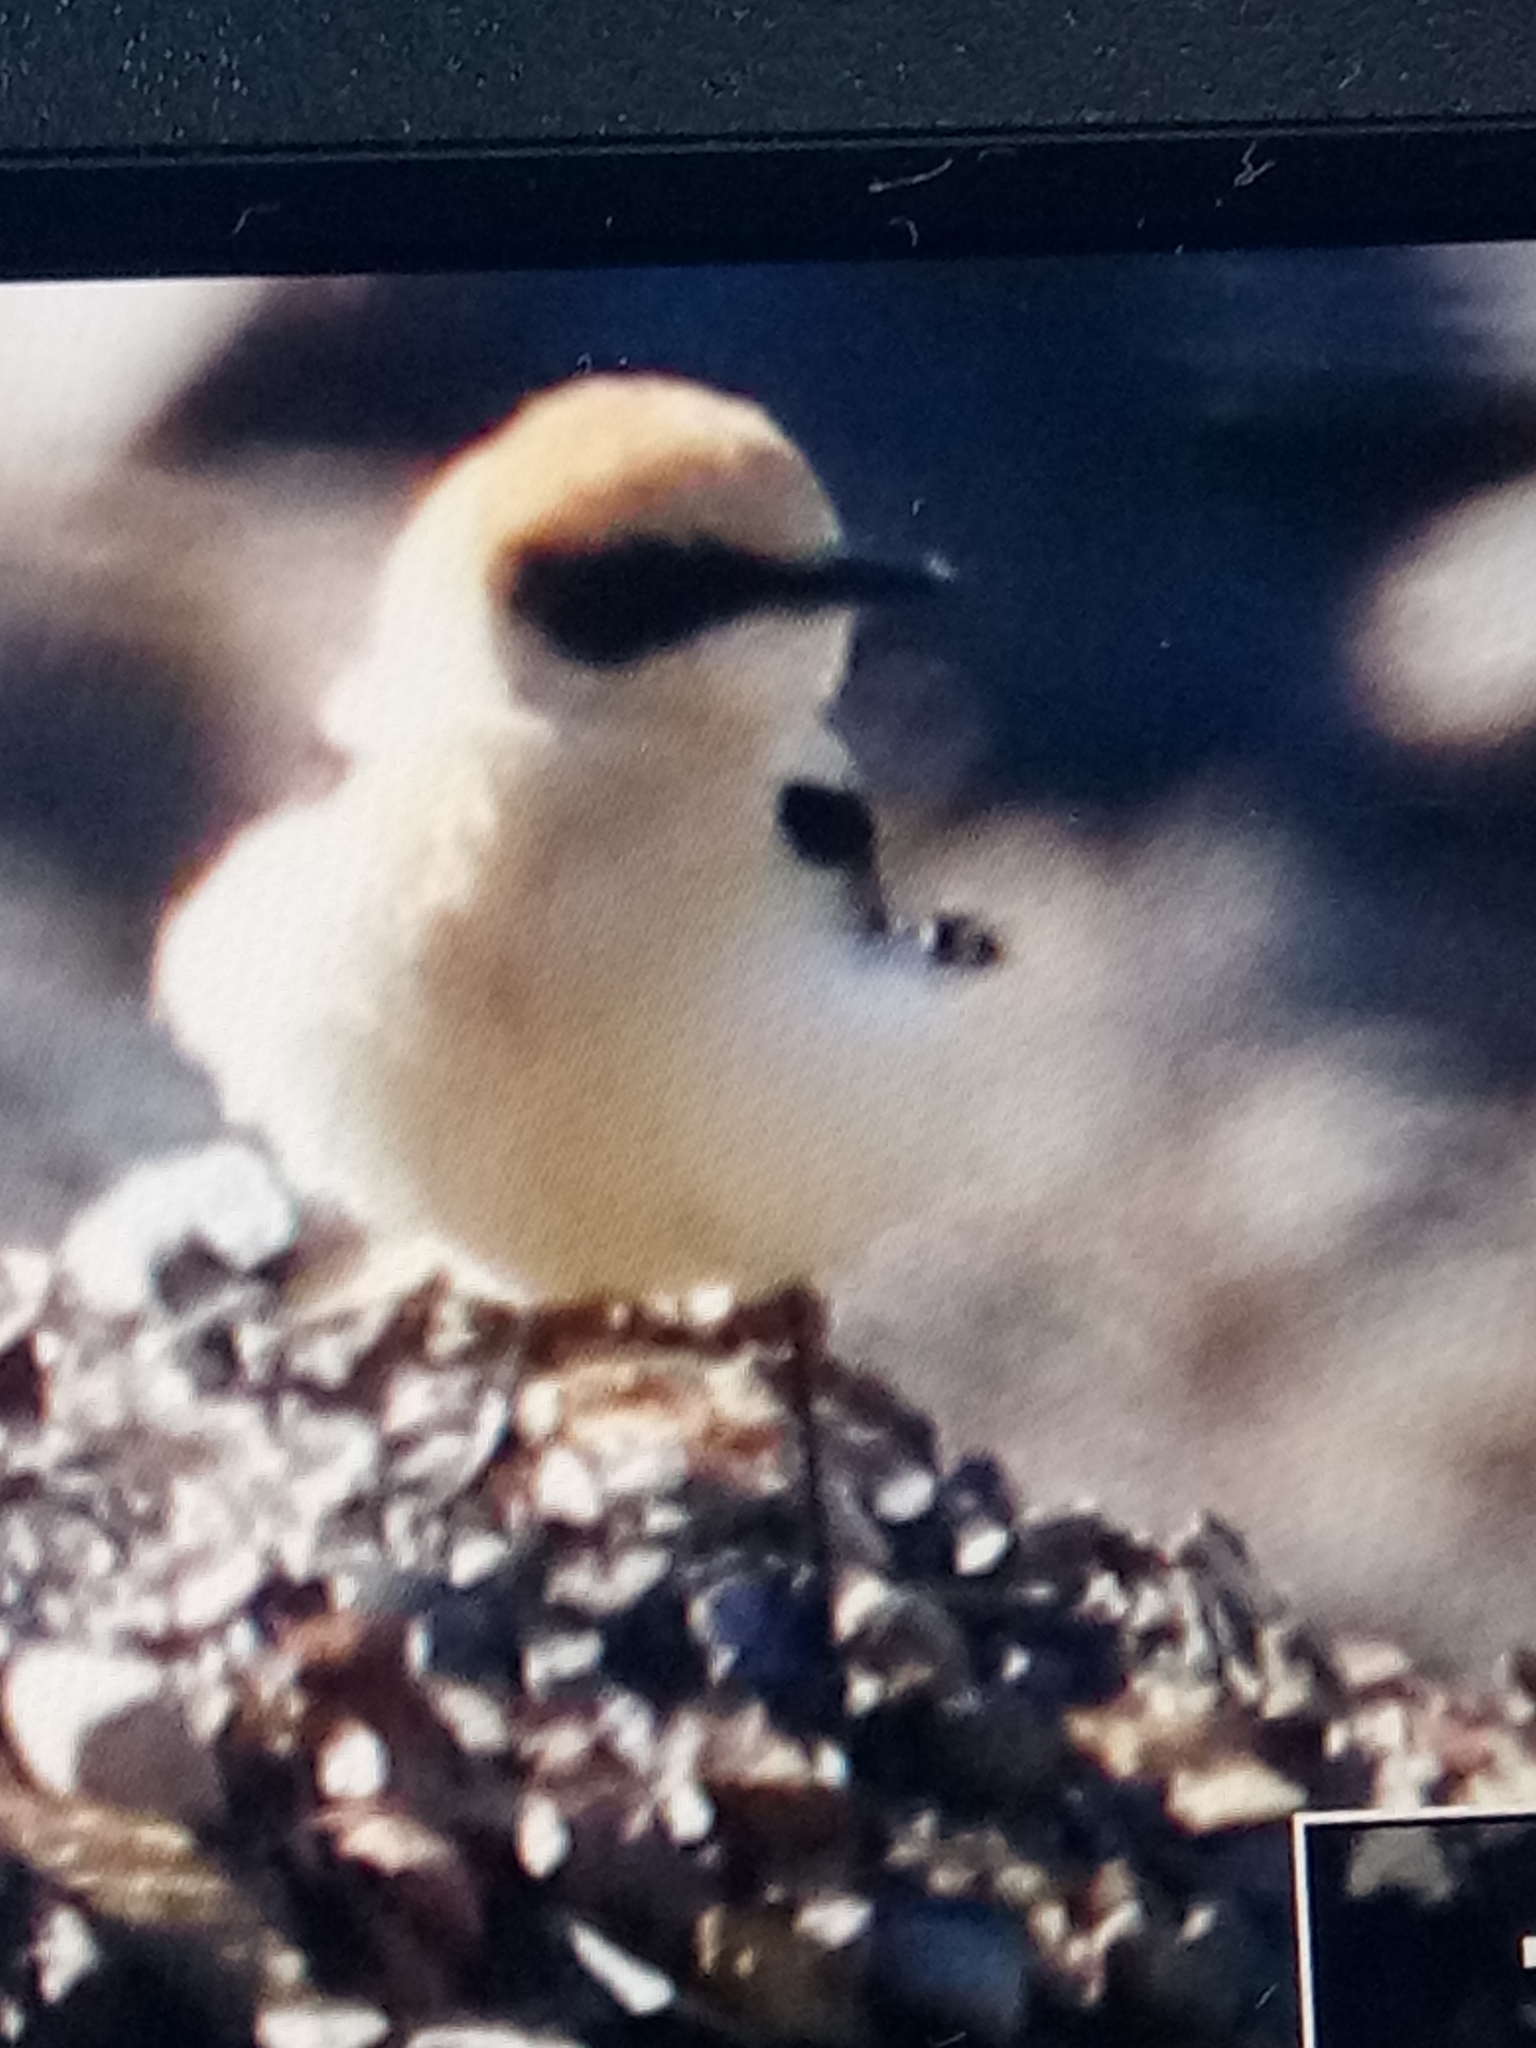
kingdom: Animalia
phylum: Chordata
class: Aves
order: Passeriformes
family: Muscicapidae
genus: Oenanthe
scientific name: Oenanthe hispanica
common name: Black-eared wheatear
